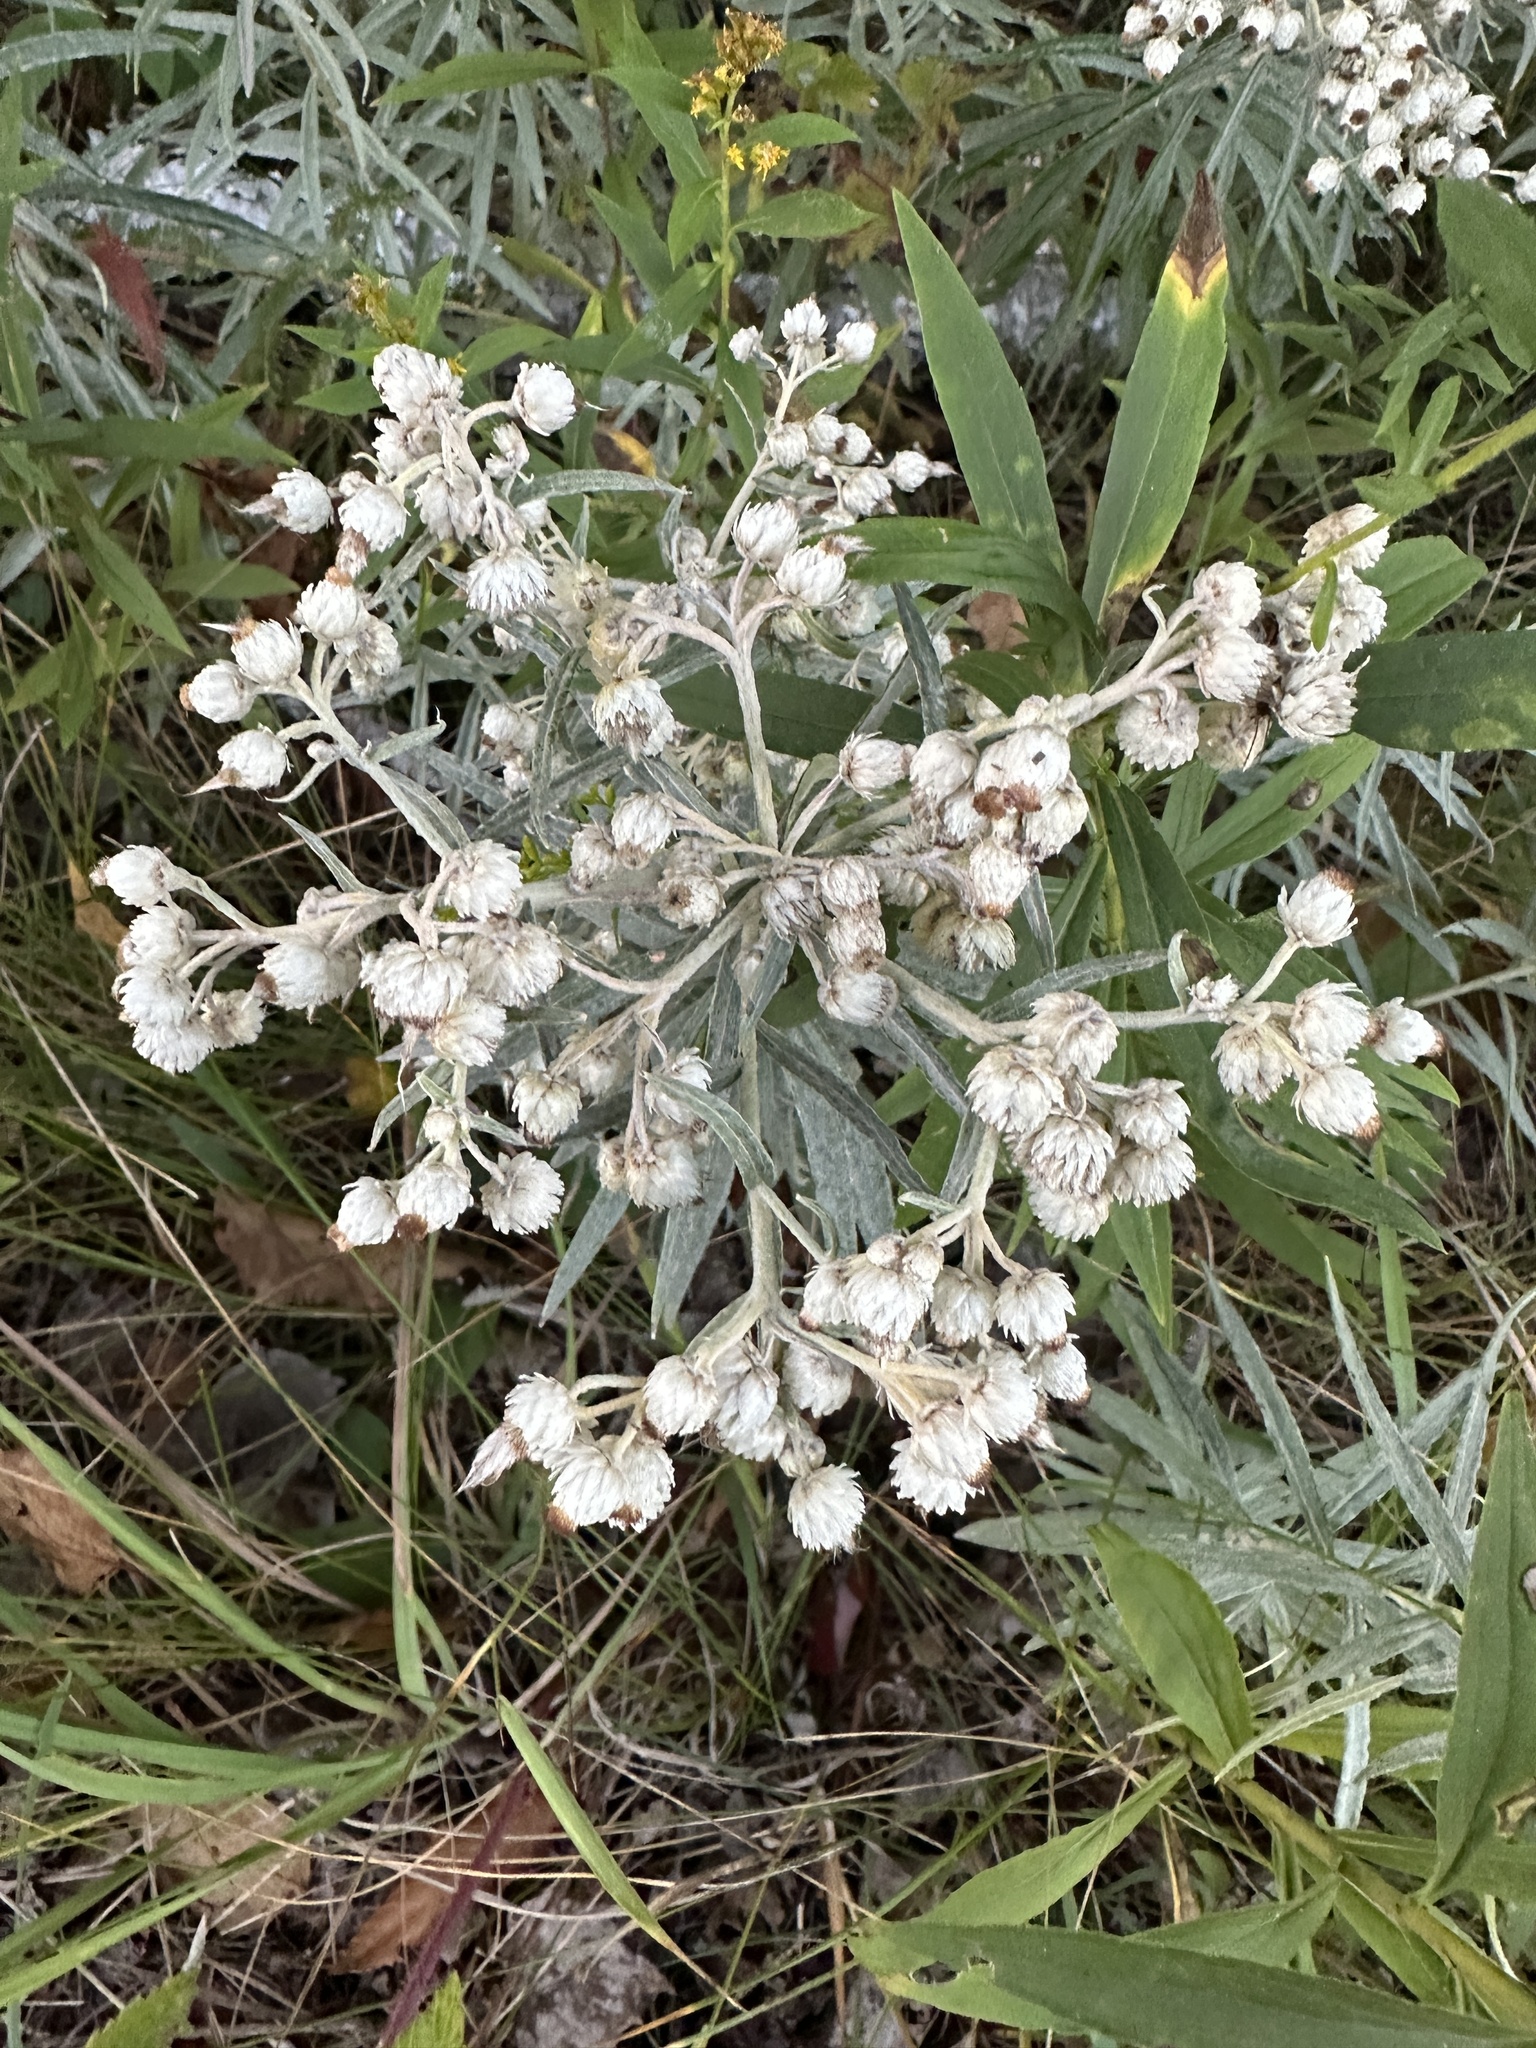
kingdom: Plantae
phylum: Tracheophyta
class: Magnoliopsida
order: Asterales
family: Asteraceae
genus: Anaphalis
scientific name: Anaphalis margaritacea
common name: Pearly everlasting
